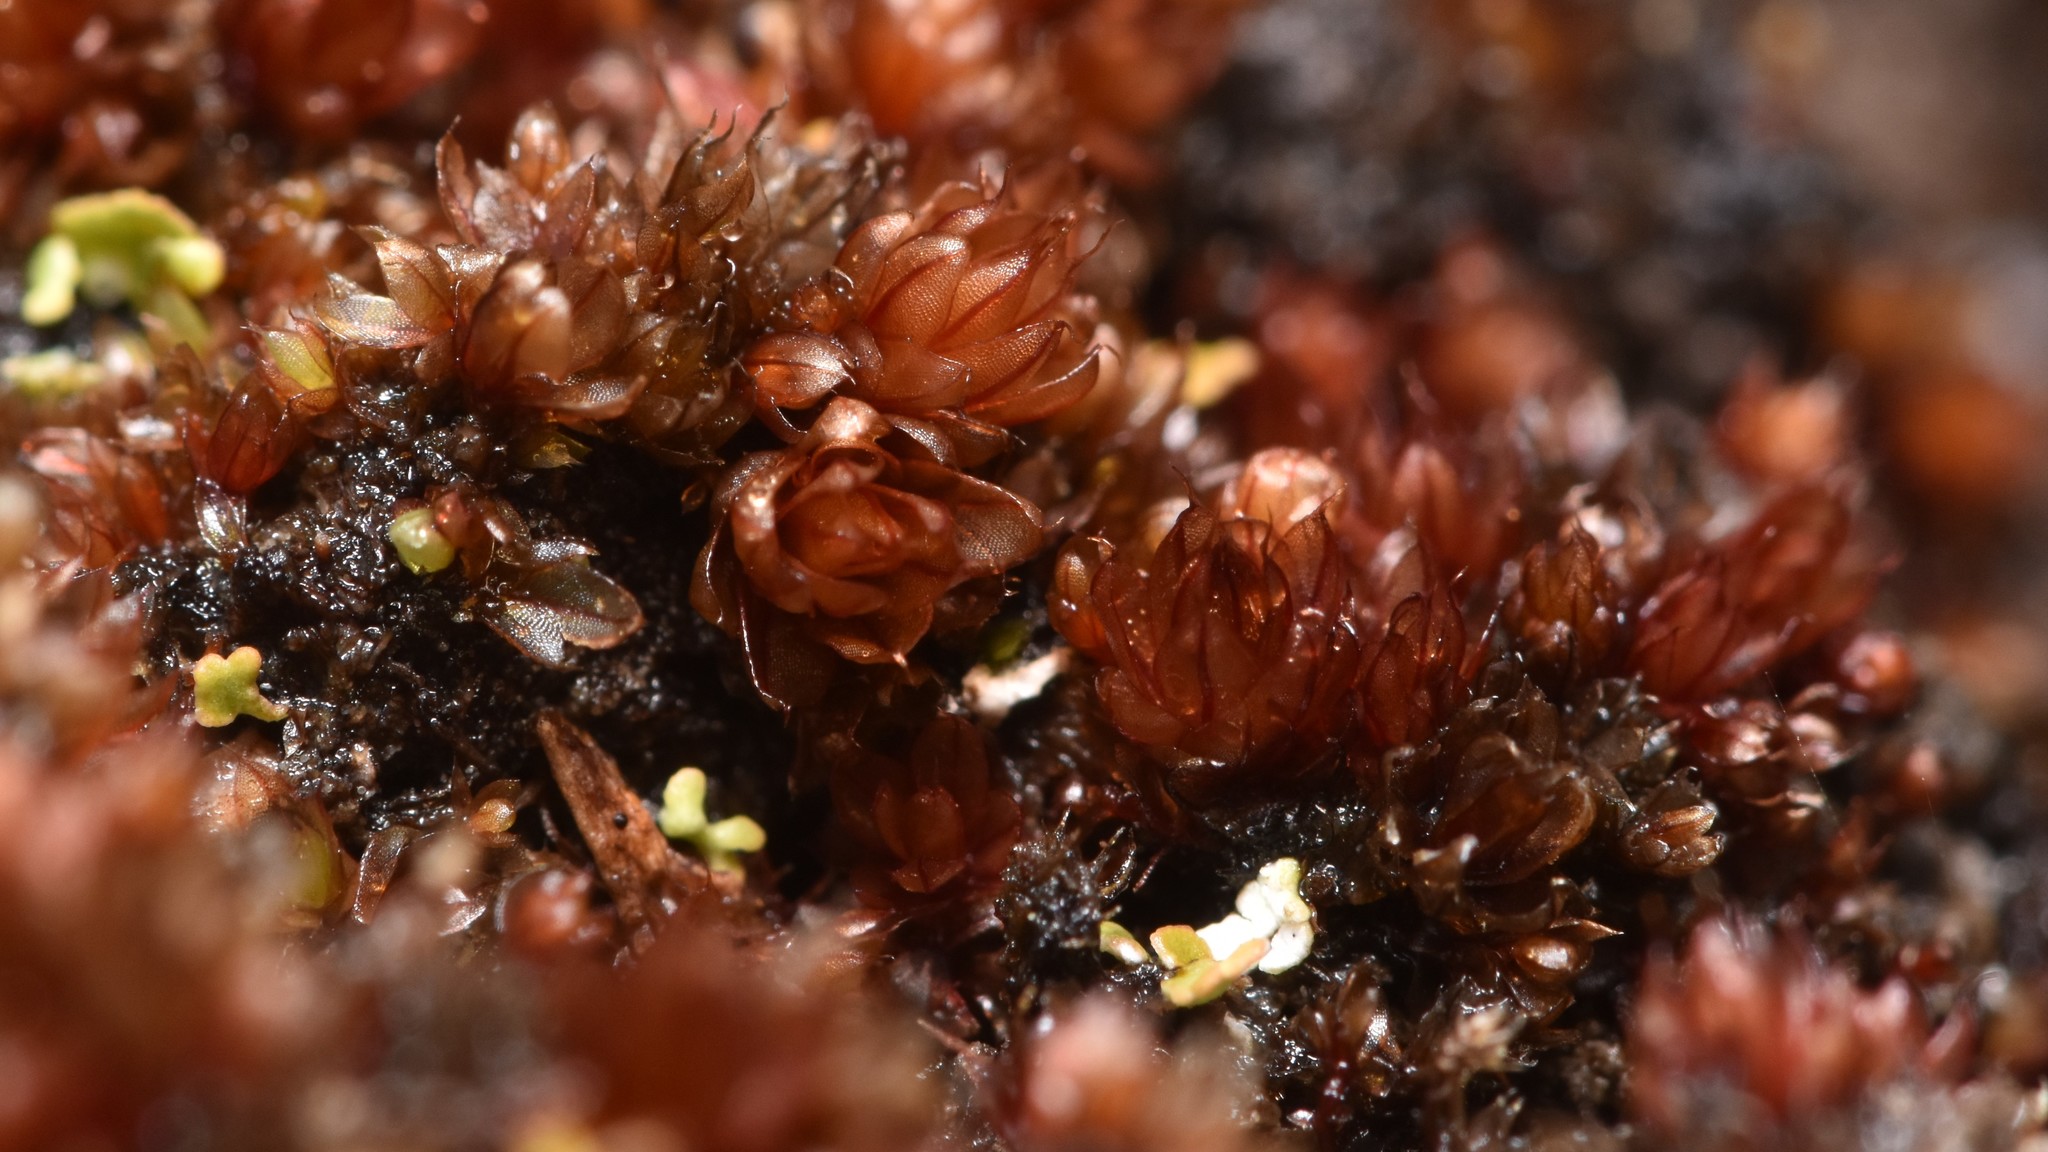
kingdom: Plantae
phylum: Bryophyta
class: Bryopsida
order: Bryales
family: Bryaceae
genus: Rosulabryum
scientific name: Rosulabryum capillare
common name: Capillary thread-moss
